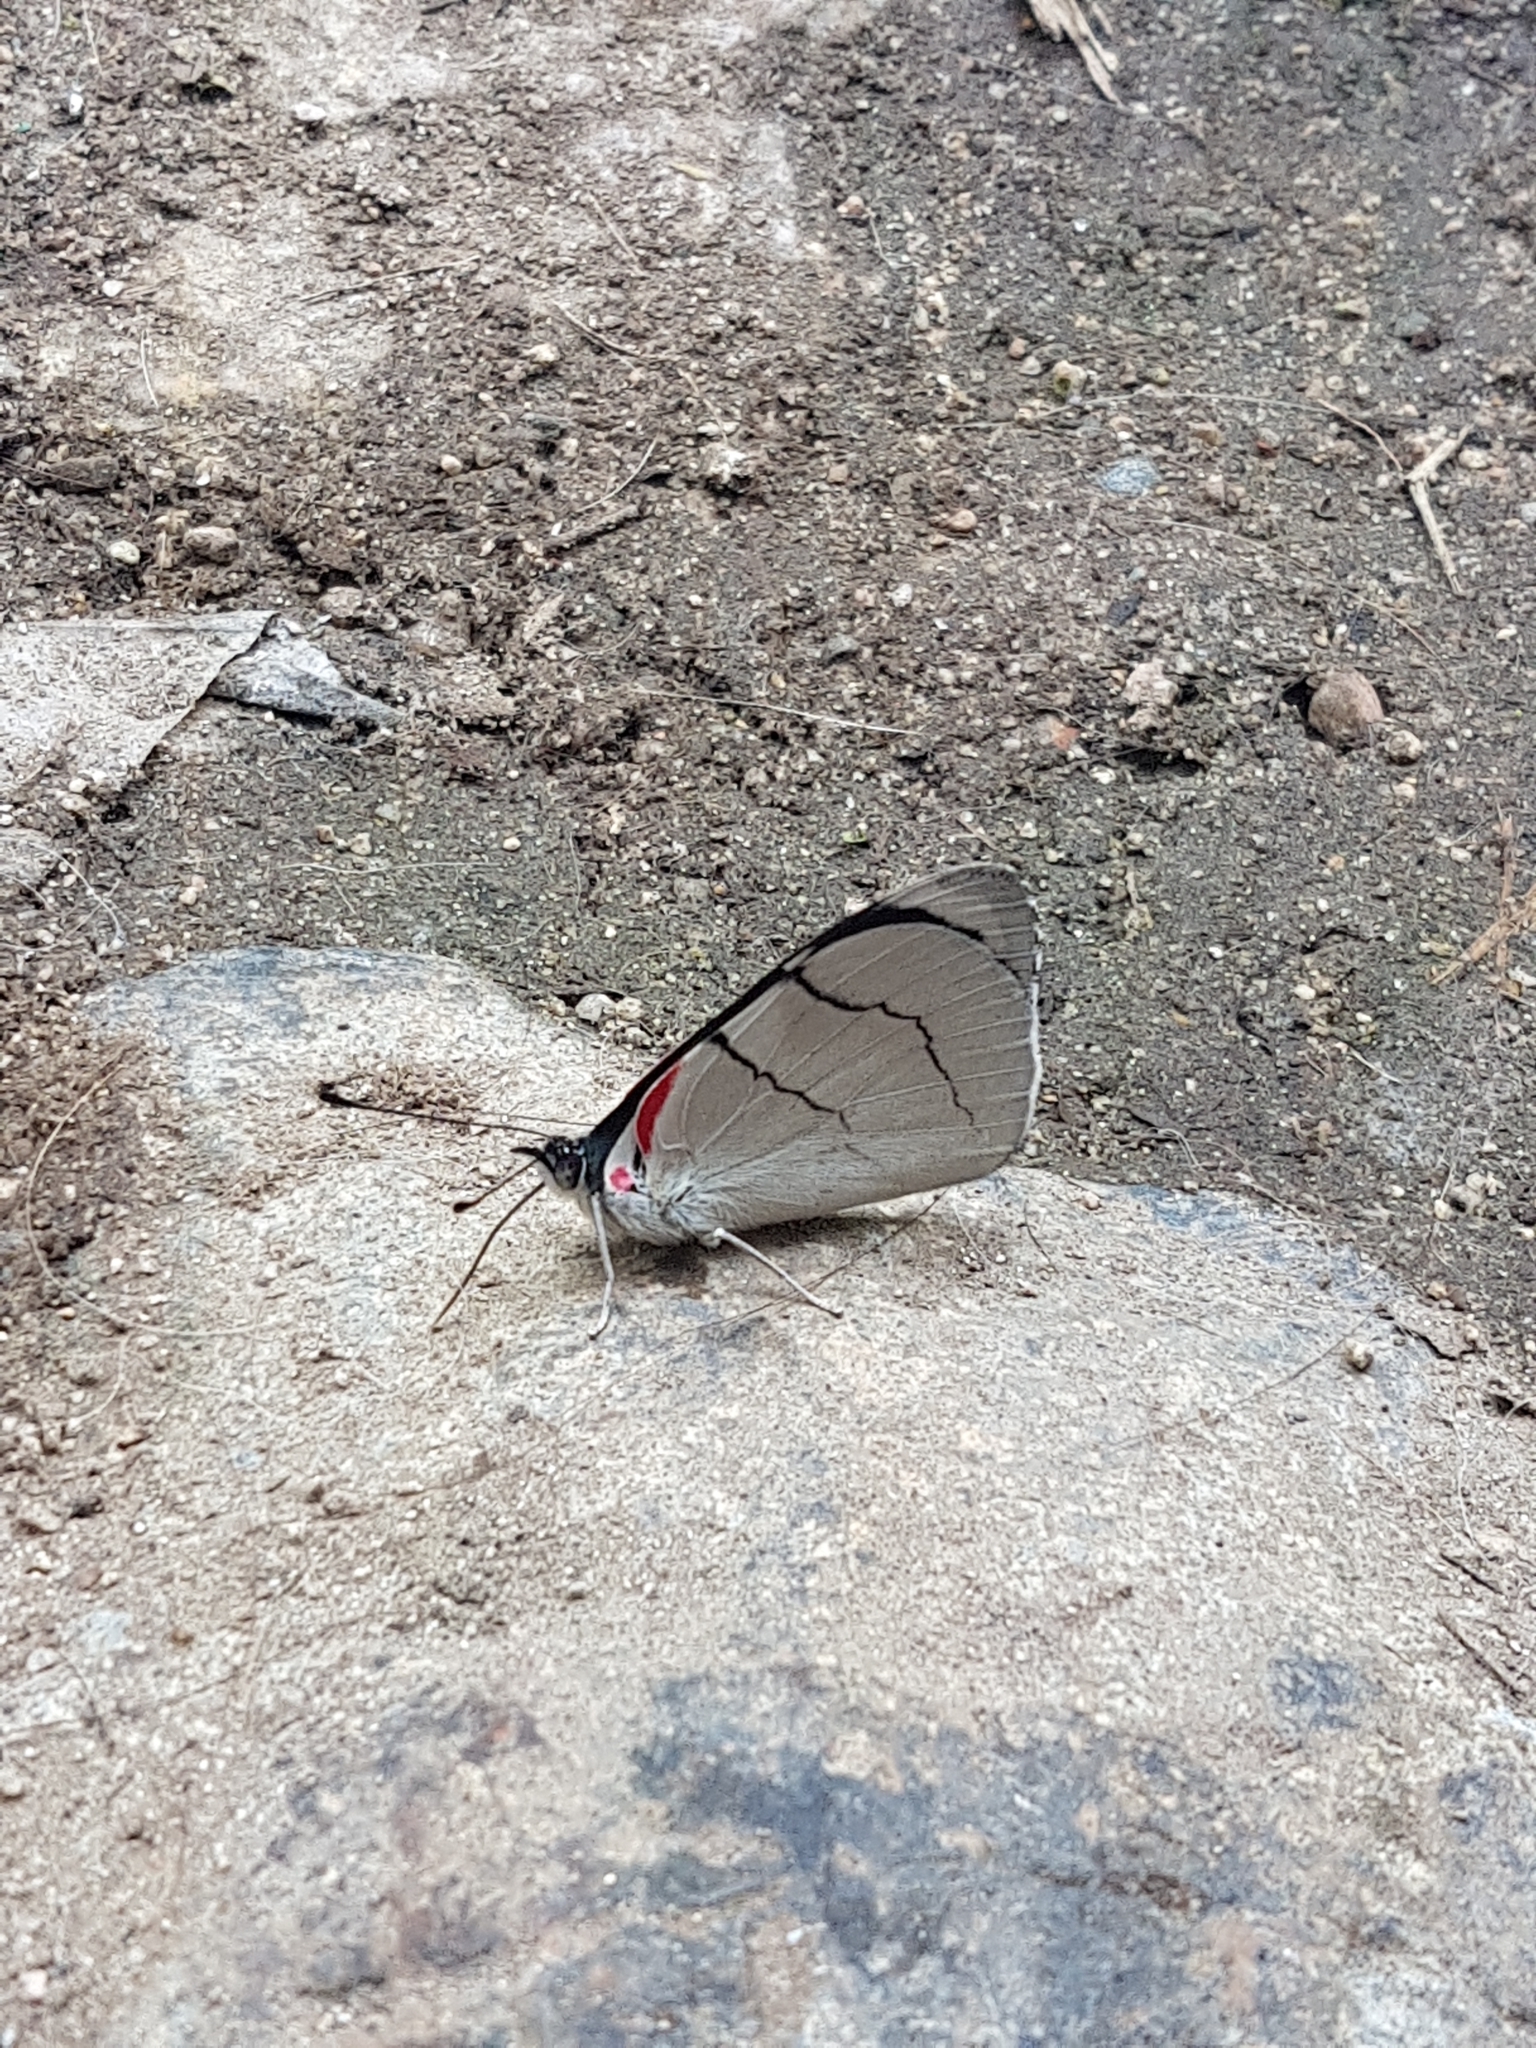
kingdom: Animalia
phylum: Arthropoda
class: Insecta
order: Lepidoptera
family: Nymphalidae
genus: Perisama
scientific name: Perisama bomplandii
